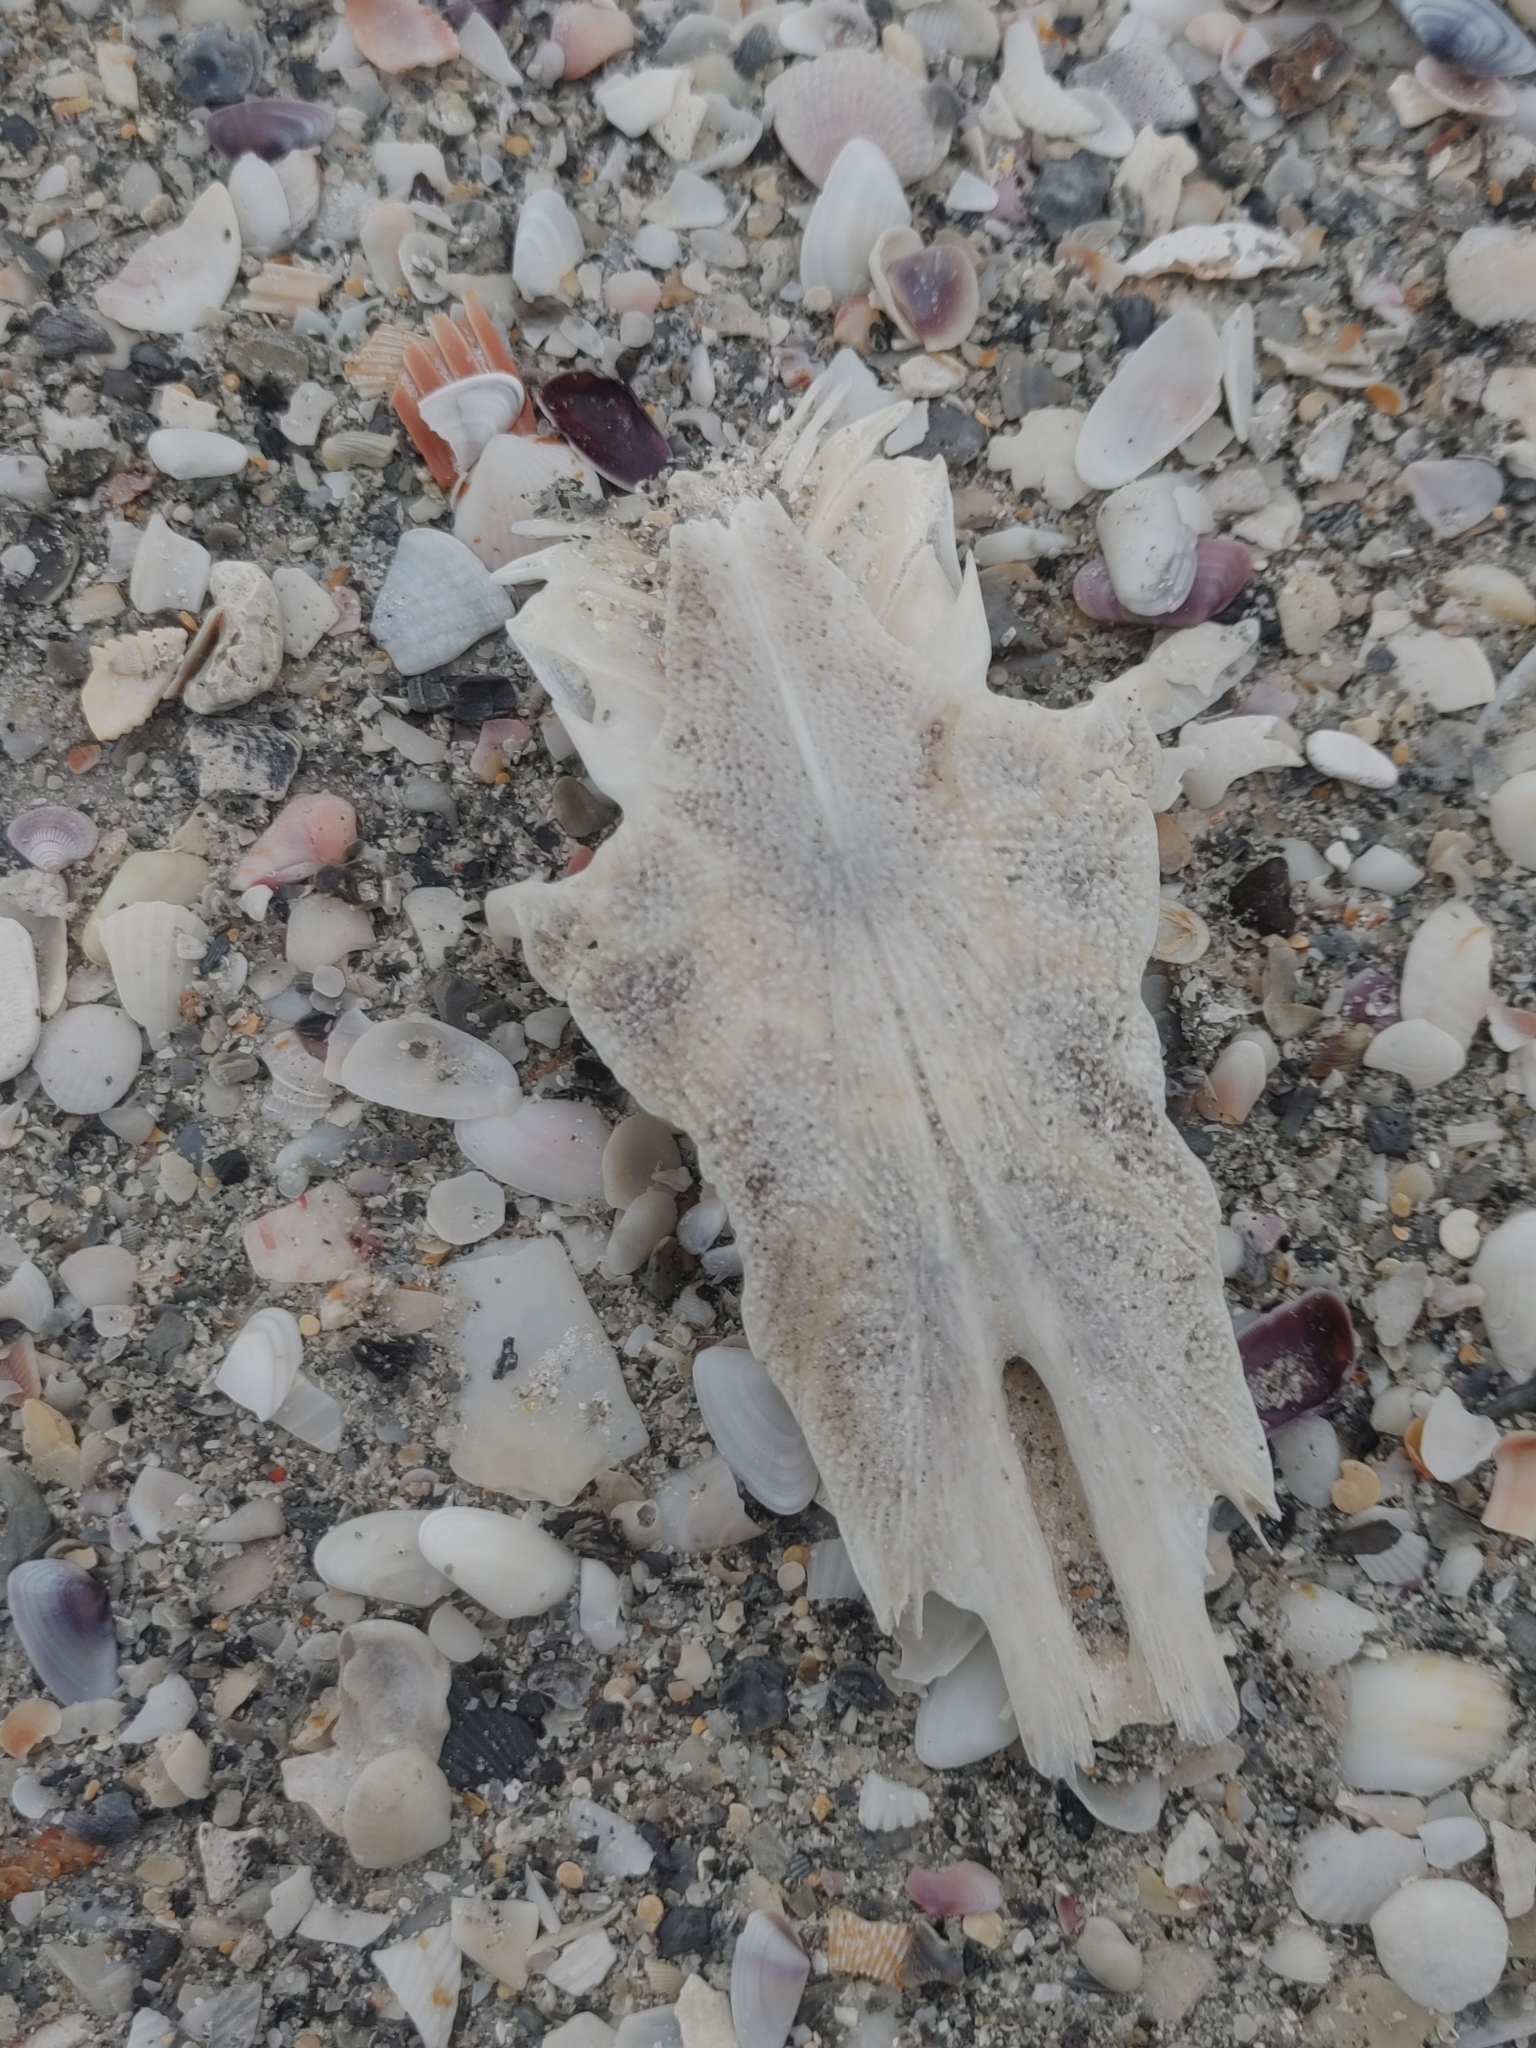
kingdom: Animalia
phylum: Chordata
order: Siluriformes
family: Ariidae
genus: Ariopsis
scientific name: Ariopsis felis
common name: Hardhead catfish
